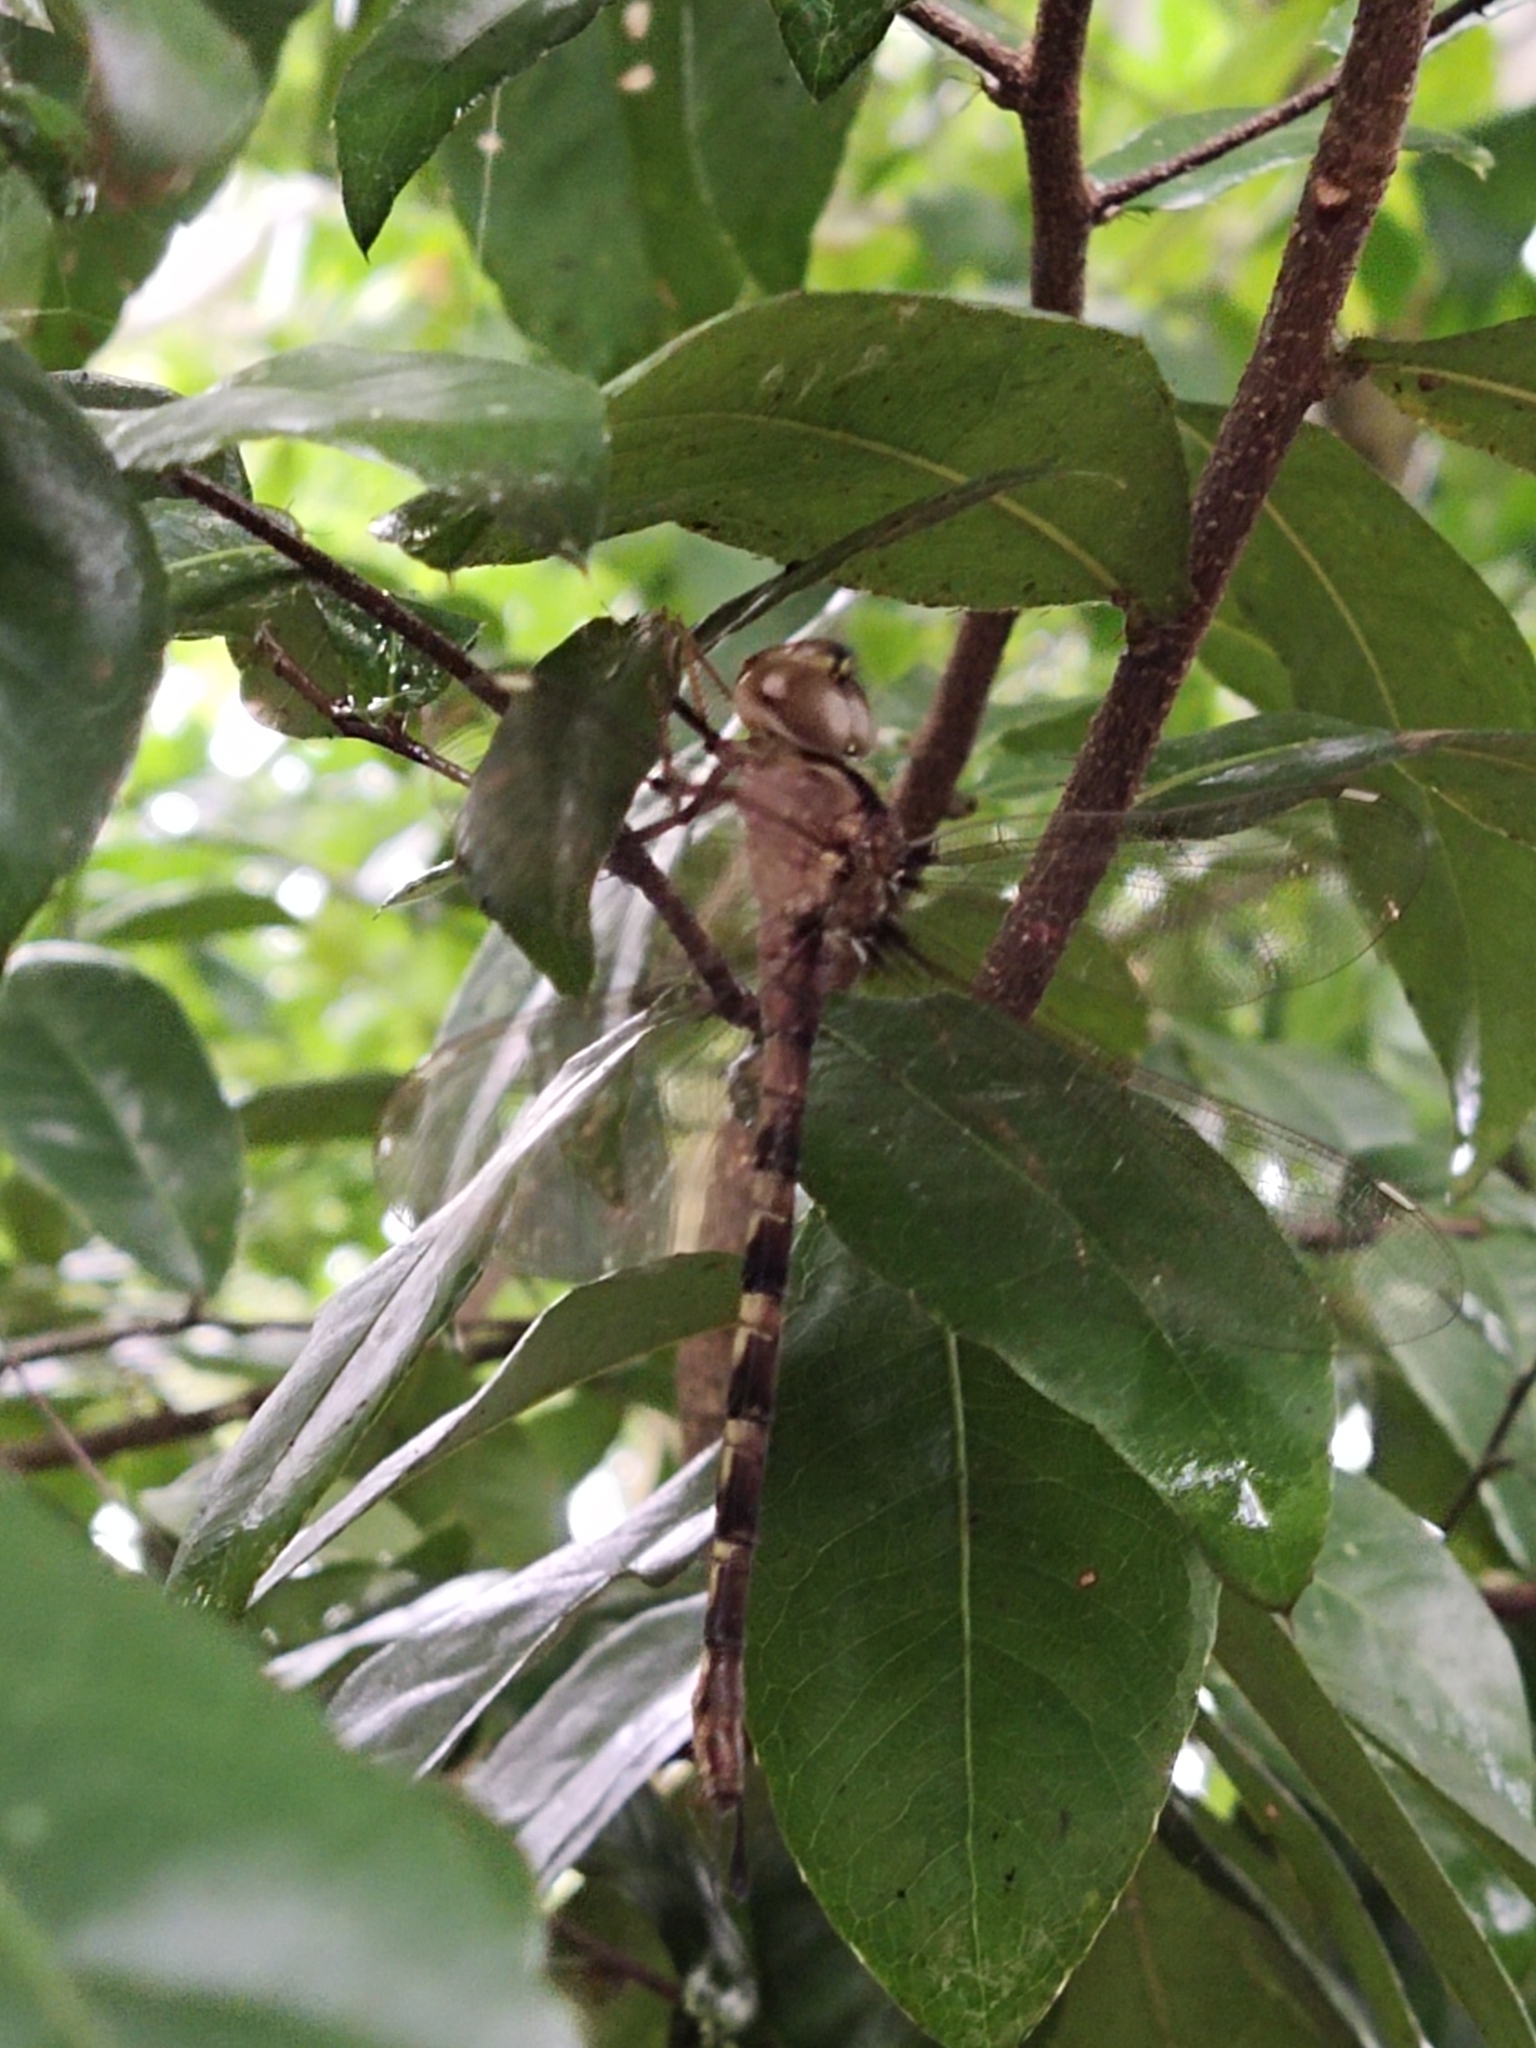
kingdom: Animalia
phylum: Arthropoda
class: Insecta
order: Odonata
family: Aeshnidae
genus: Gynacantha
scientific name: Gynacantha dravida
